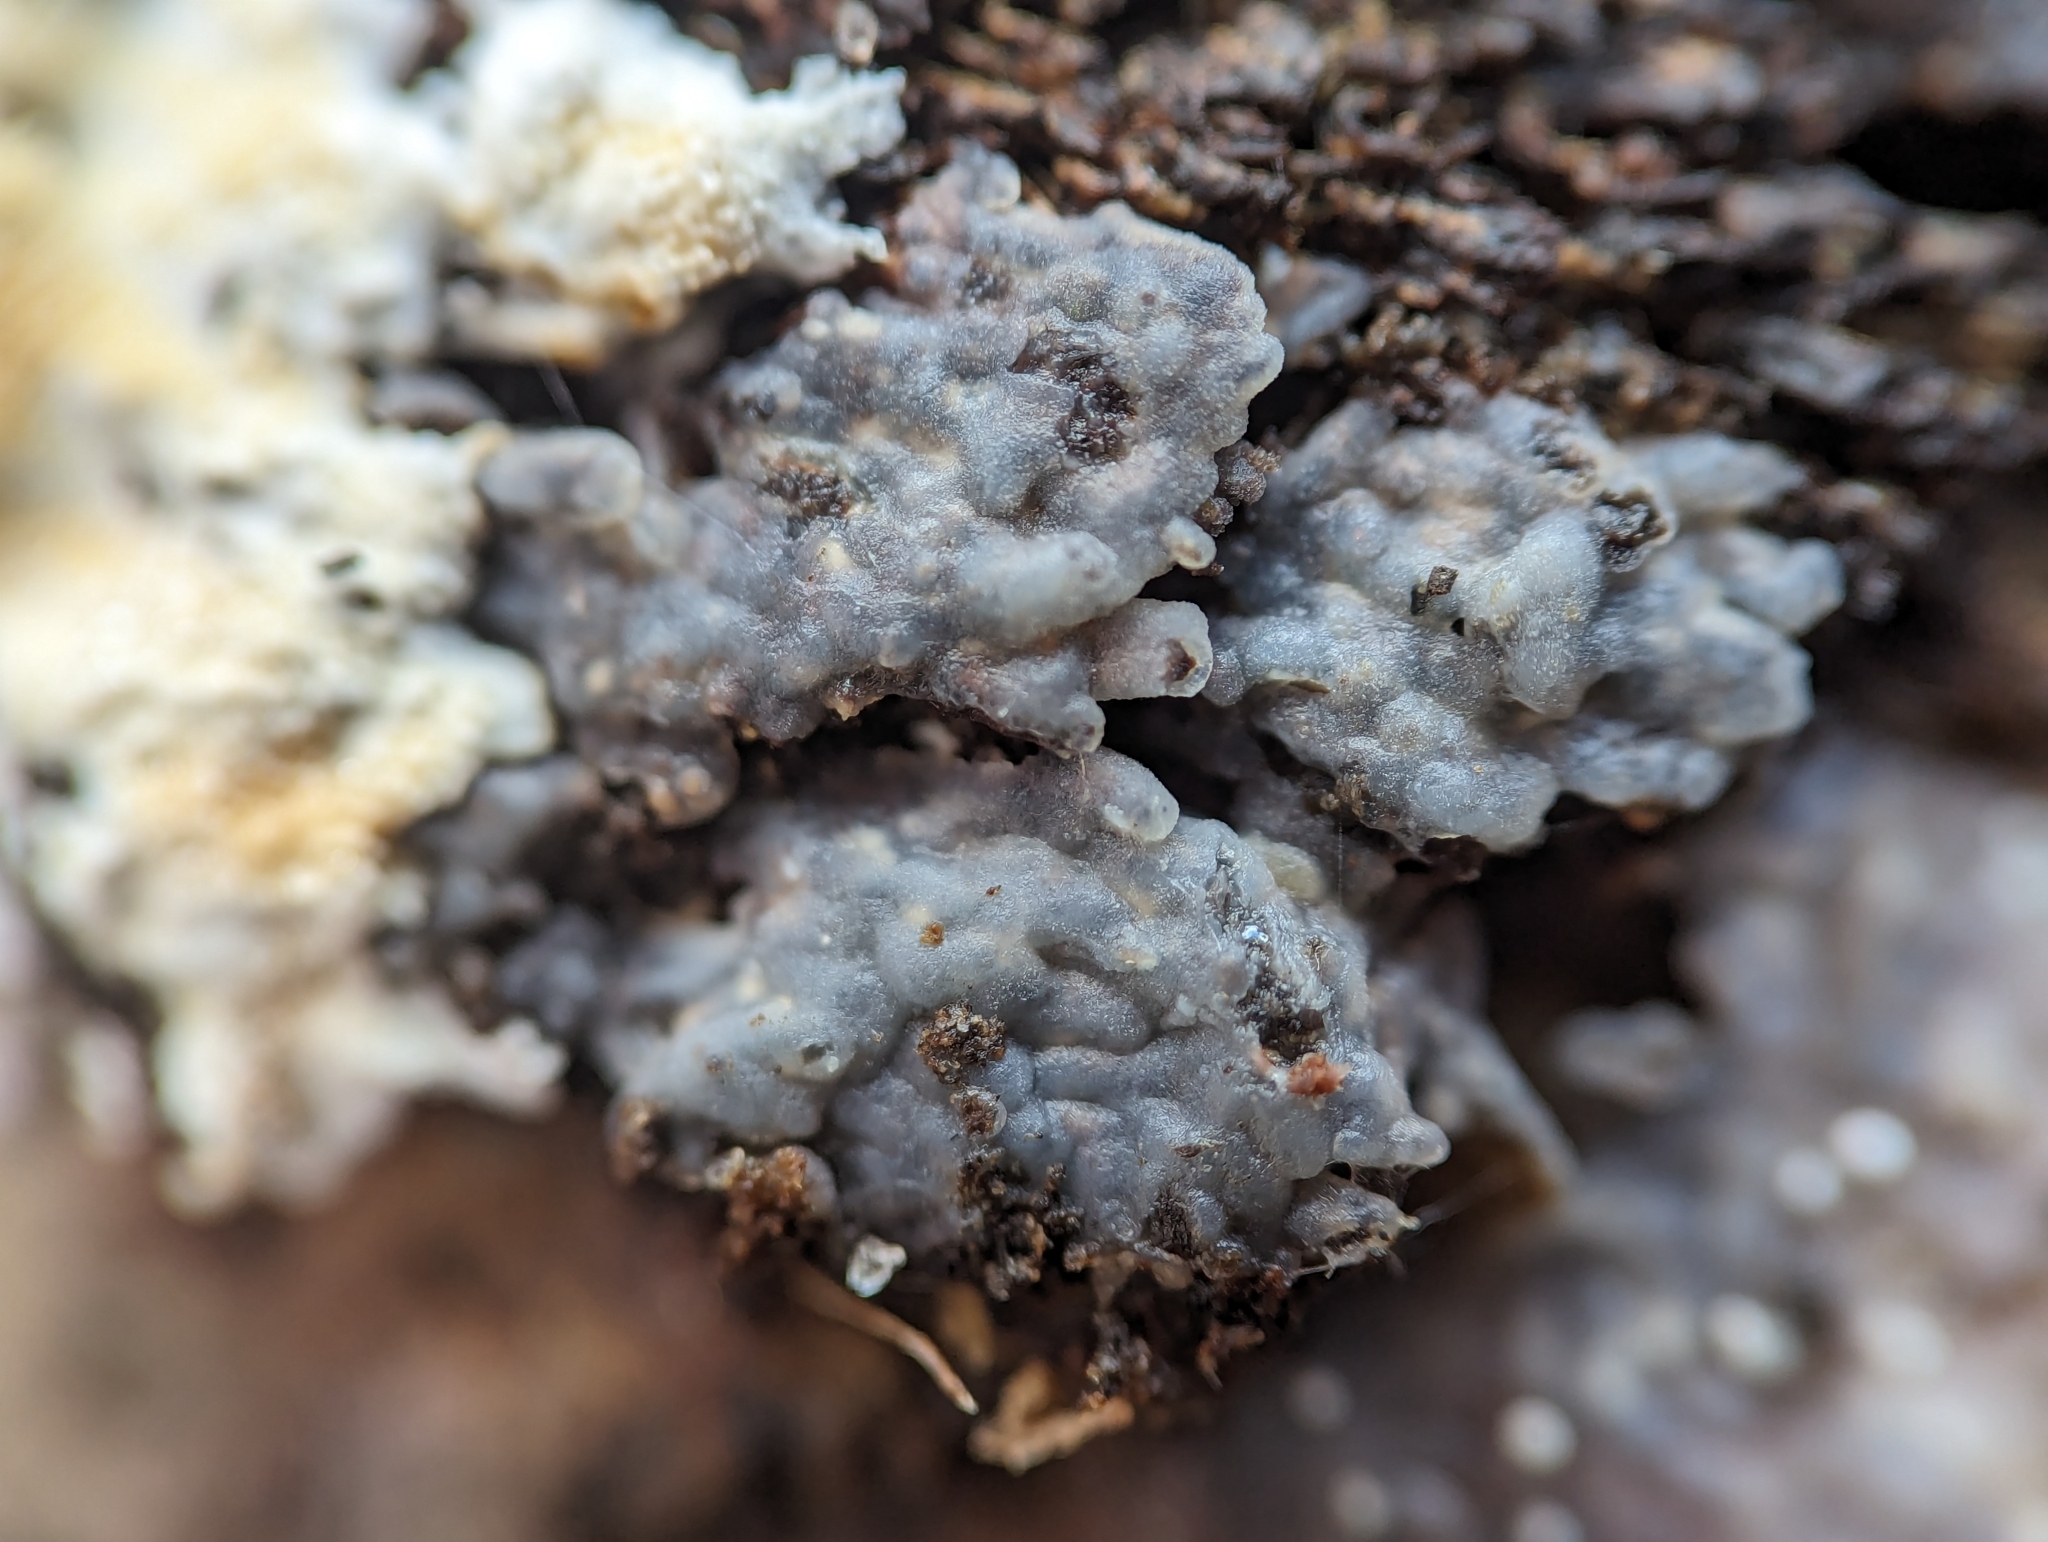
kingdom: Fungi
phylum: Basidiomycota
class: Agaricomycetes
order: Auriculariales
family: Hyaloriaceae
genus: Myxarium
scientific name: Myxarium nucleatum
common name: Crystal brain fungus
